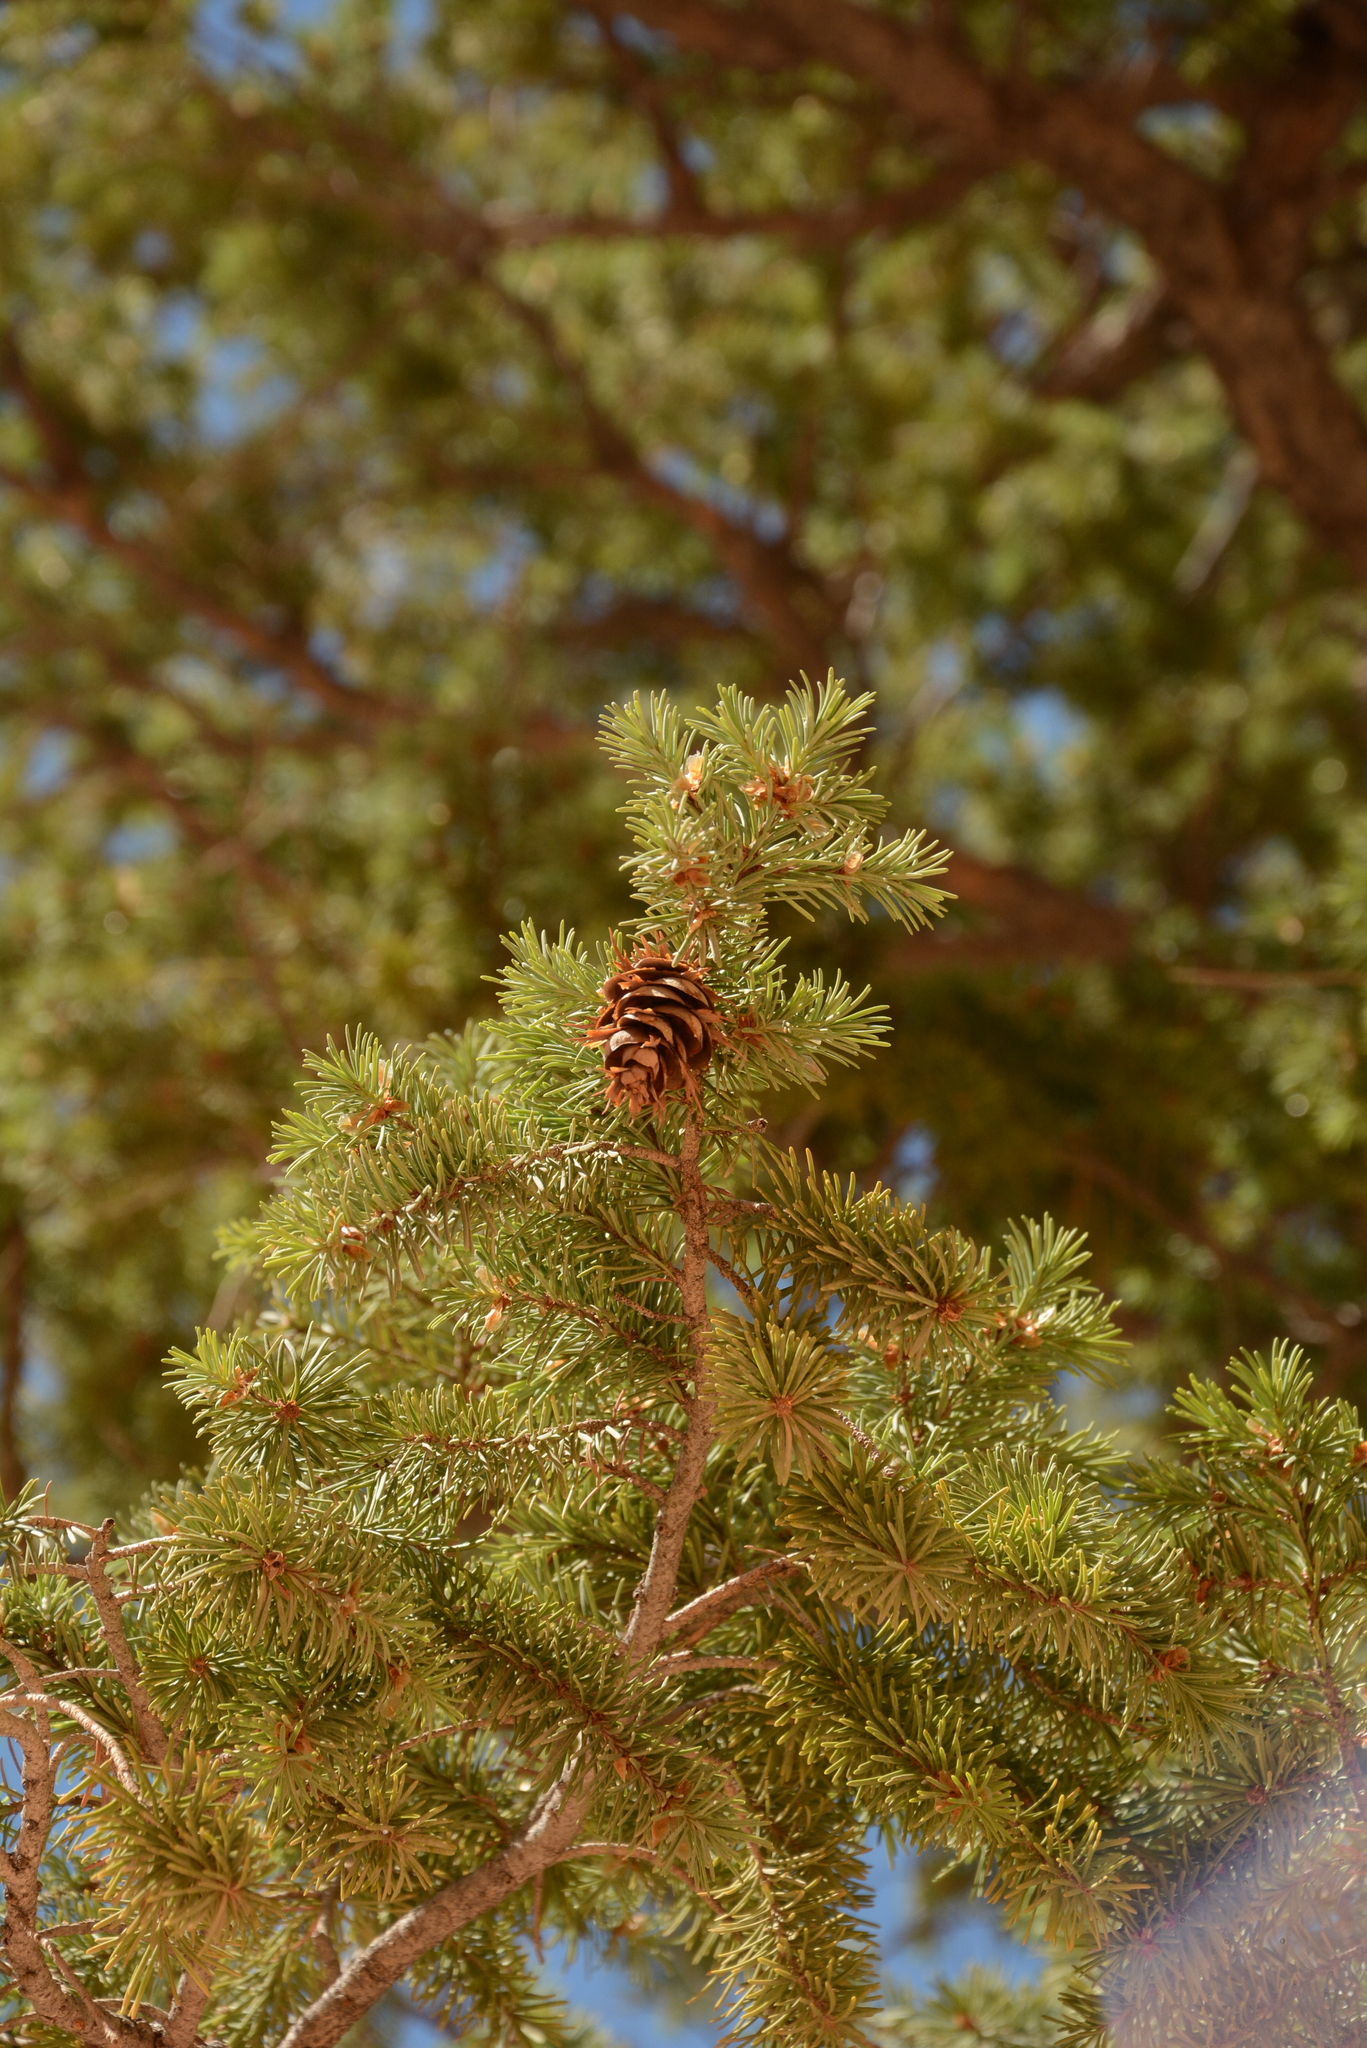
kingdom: Plantae
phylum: Tracheophyta
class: Pinopsida
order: Pinales
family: Pinaceae
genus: Pseudotsuga
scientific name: Pseudotsuga menziesii
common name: Douglas fir
